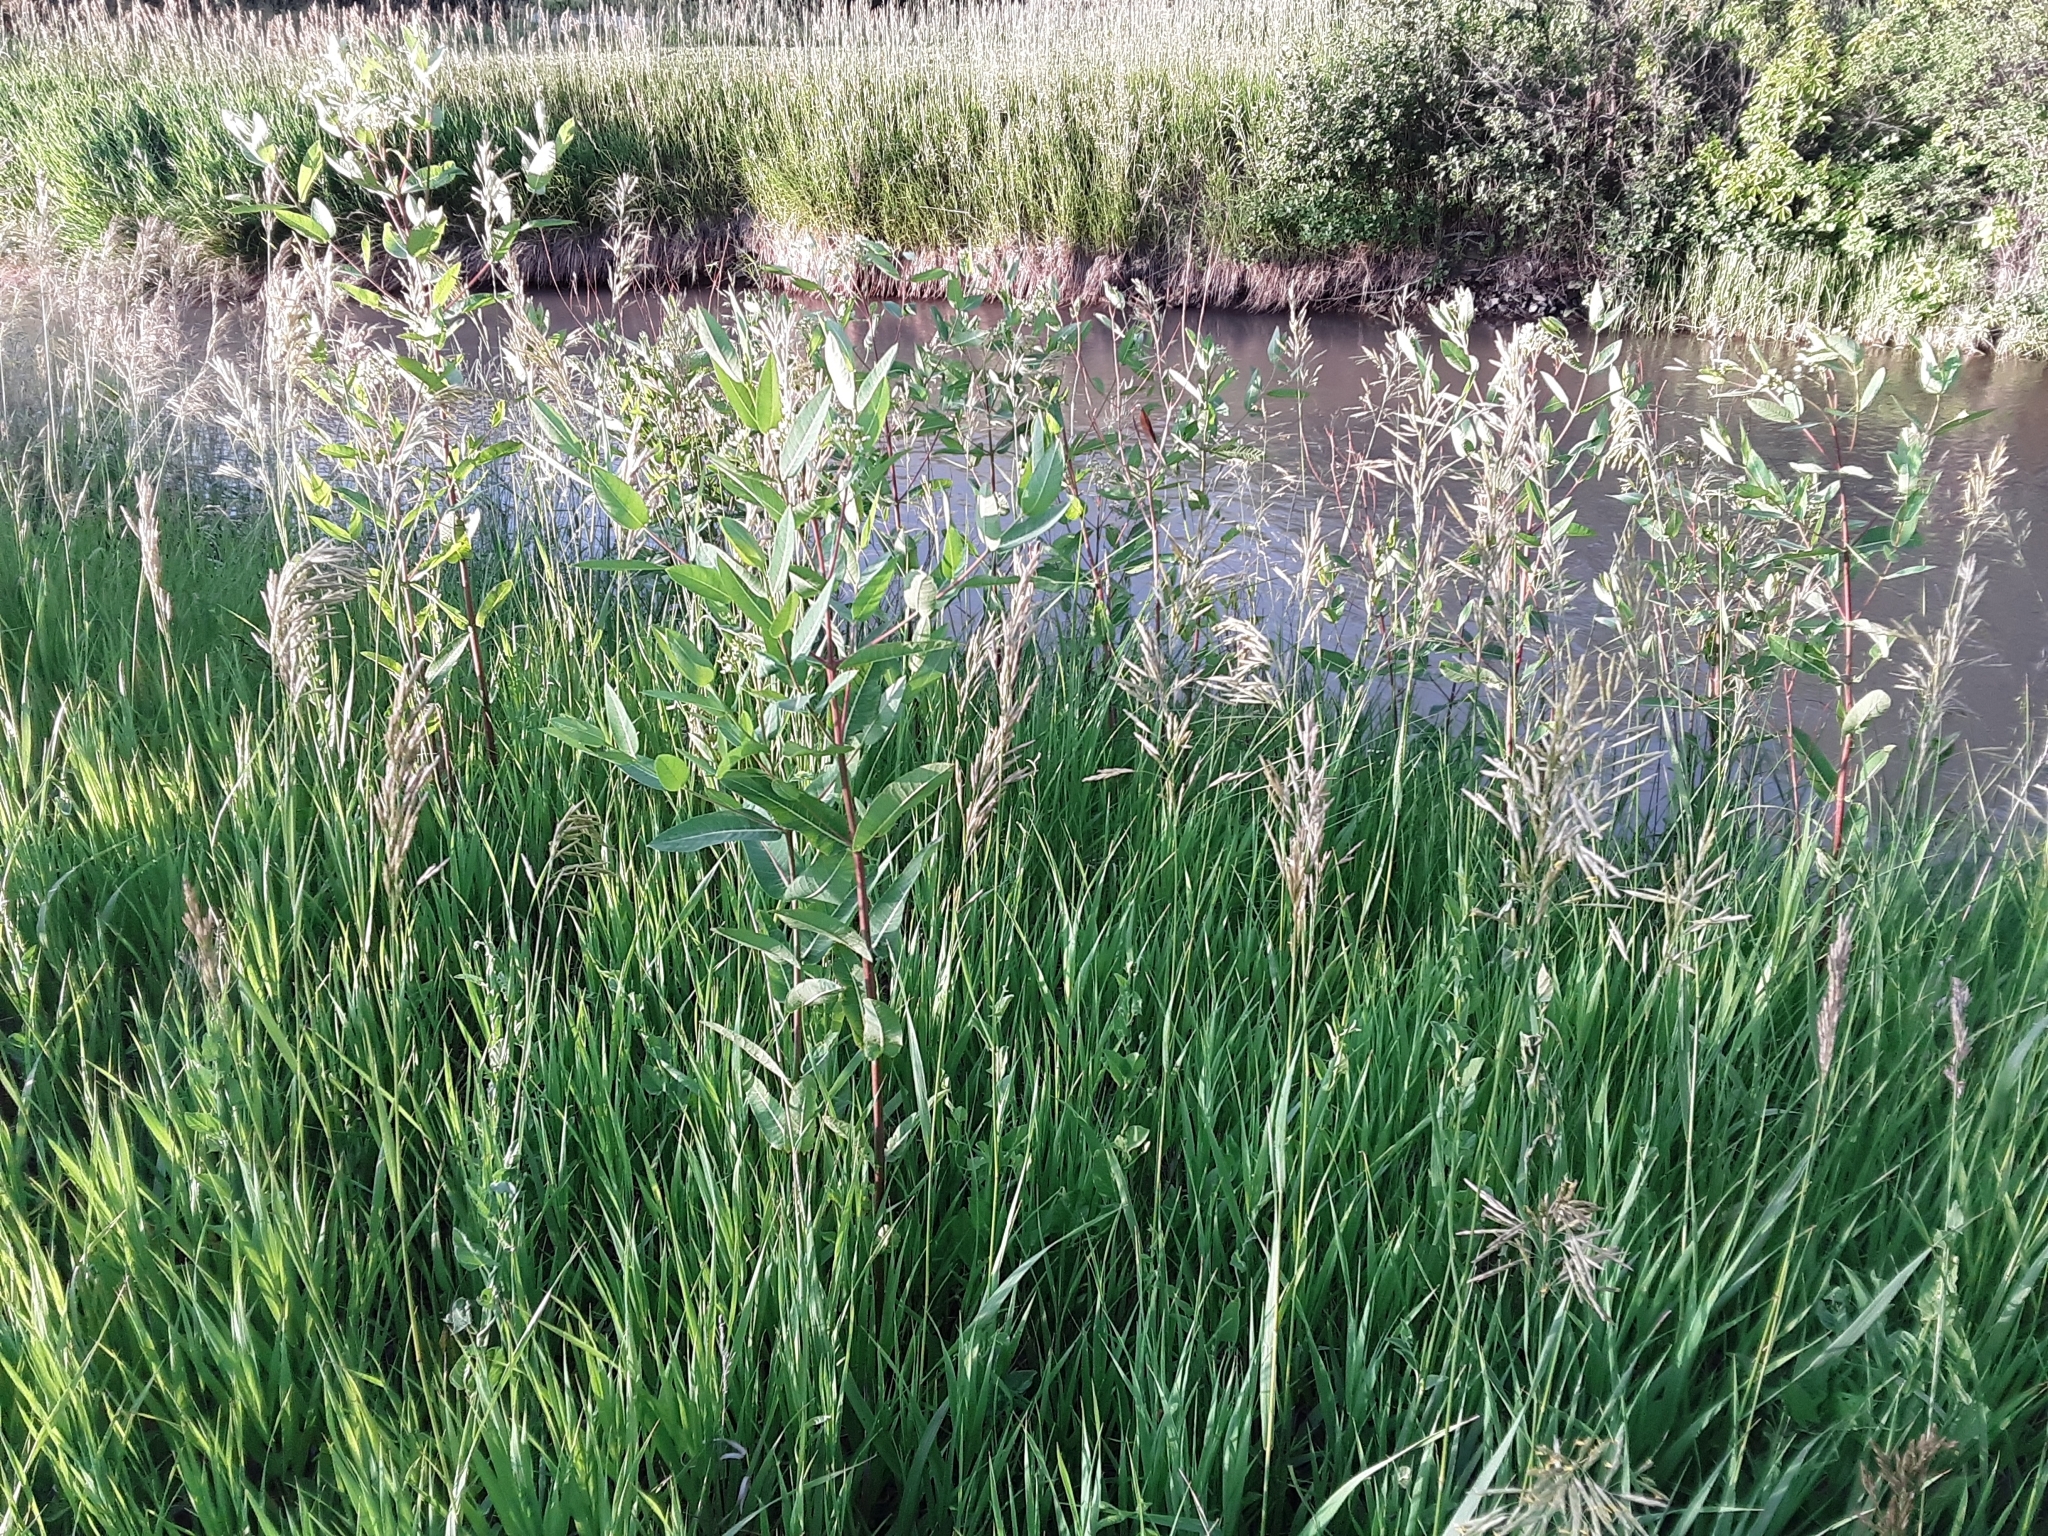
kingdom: Plantae
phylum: Tracheophyta
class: Magnoliopsida
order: Gentianales
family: Apocynaceae
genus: Apocynum
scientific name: Apocynum cannabinum
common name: Hemp dogbane
